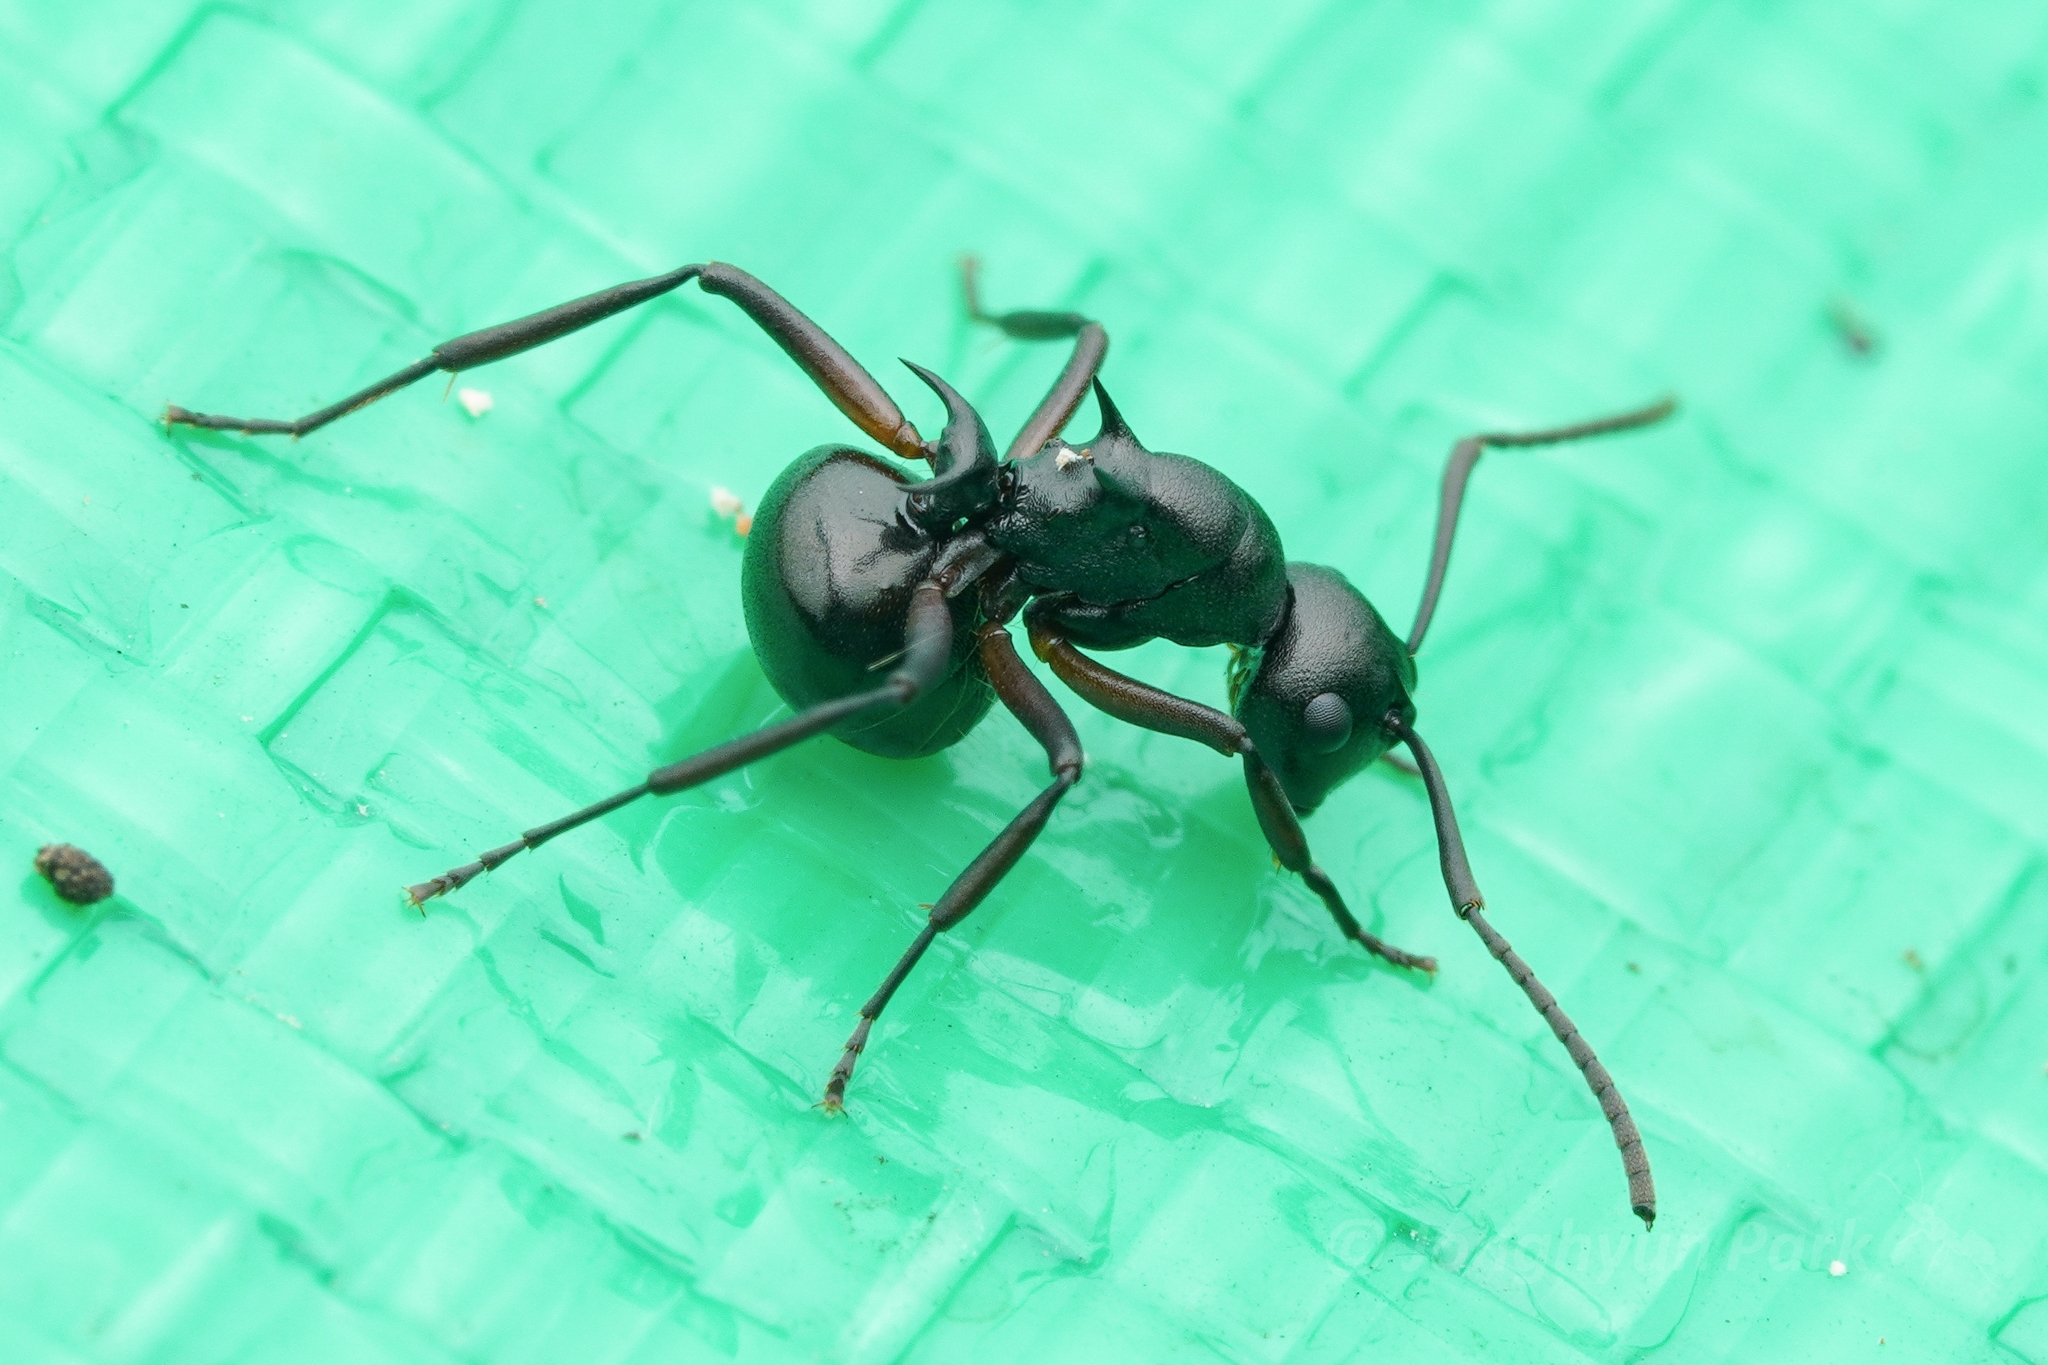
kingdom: Animalia
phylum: Arthropoda
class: Insecta
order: Hymenoptera
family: Formicidae
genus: Polyrhachis
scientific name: Polyrhachis moesta
